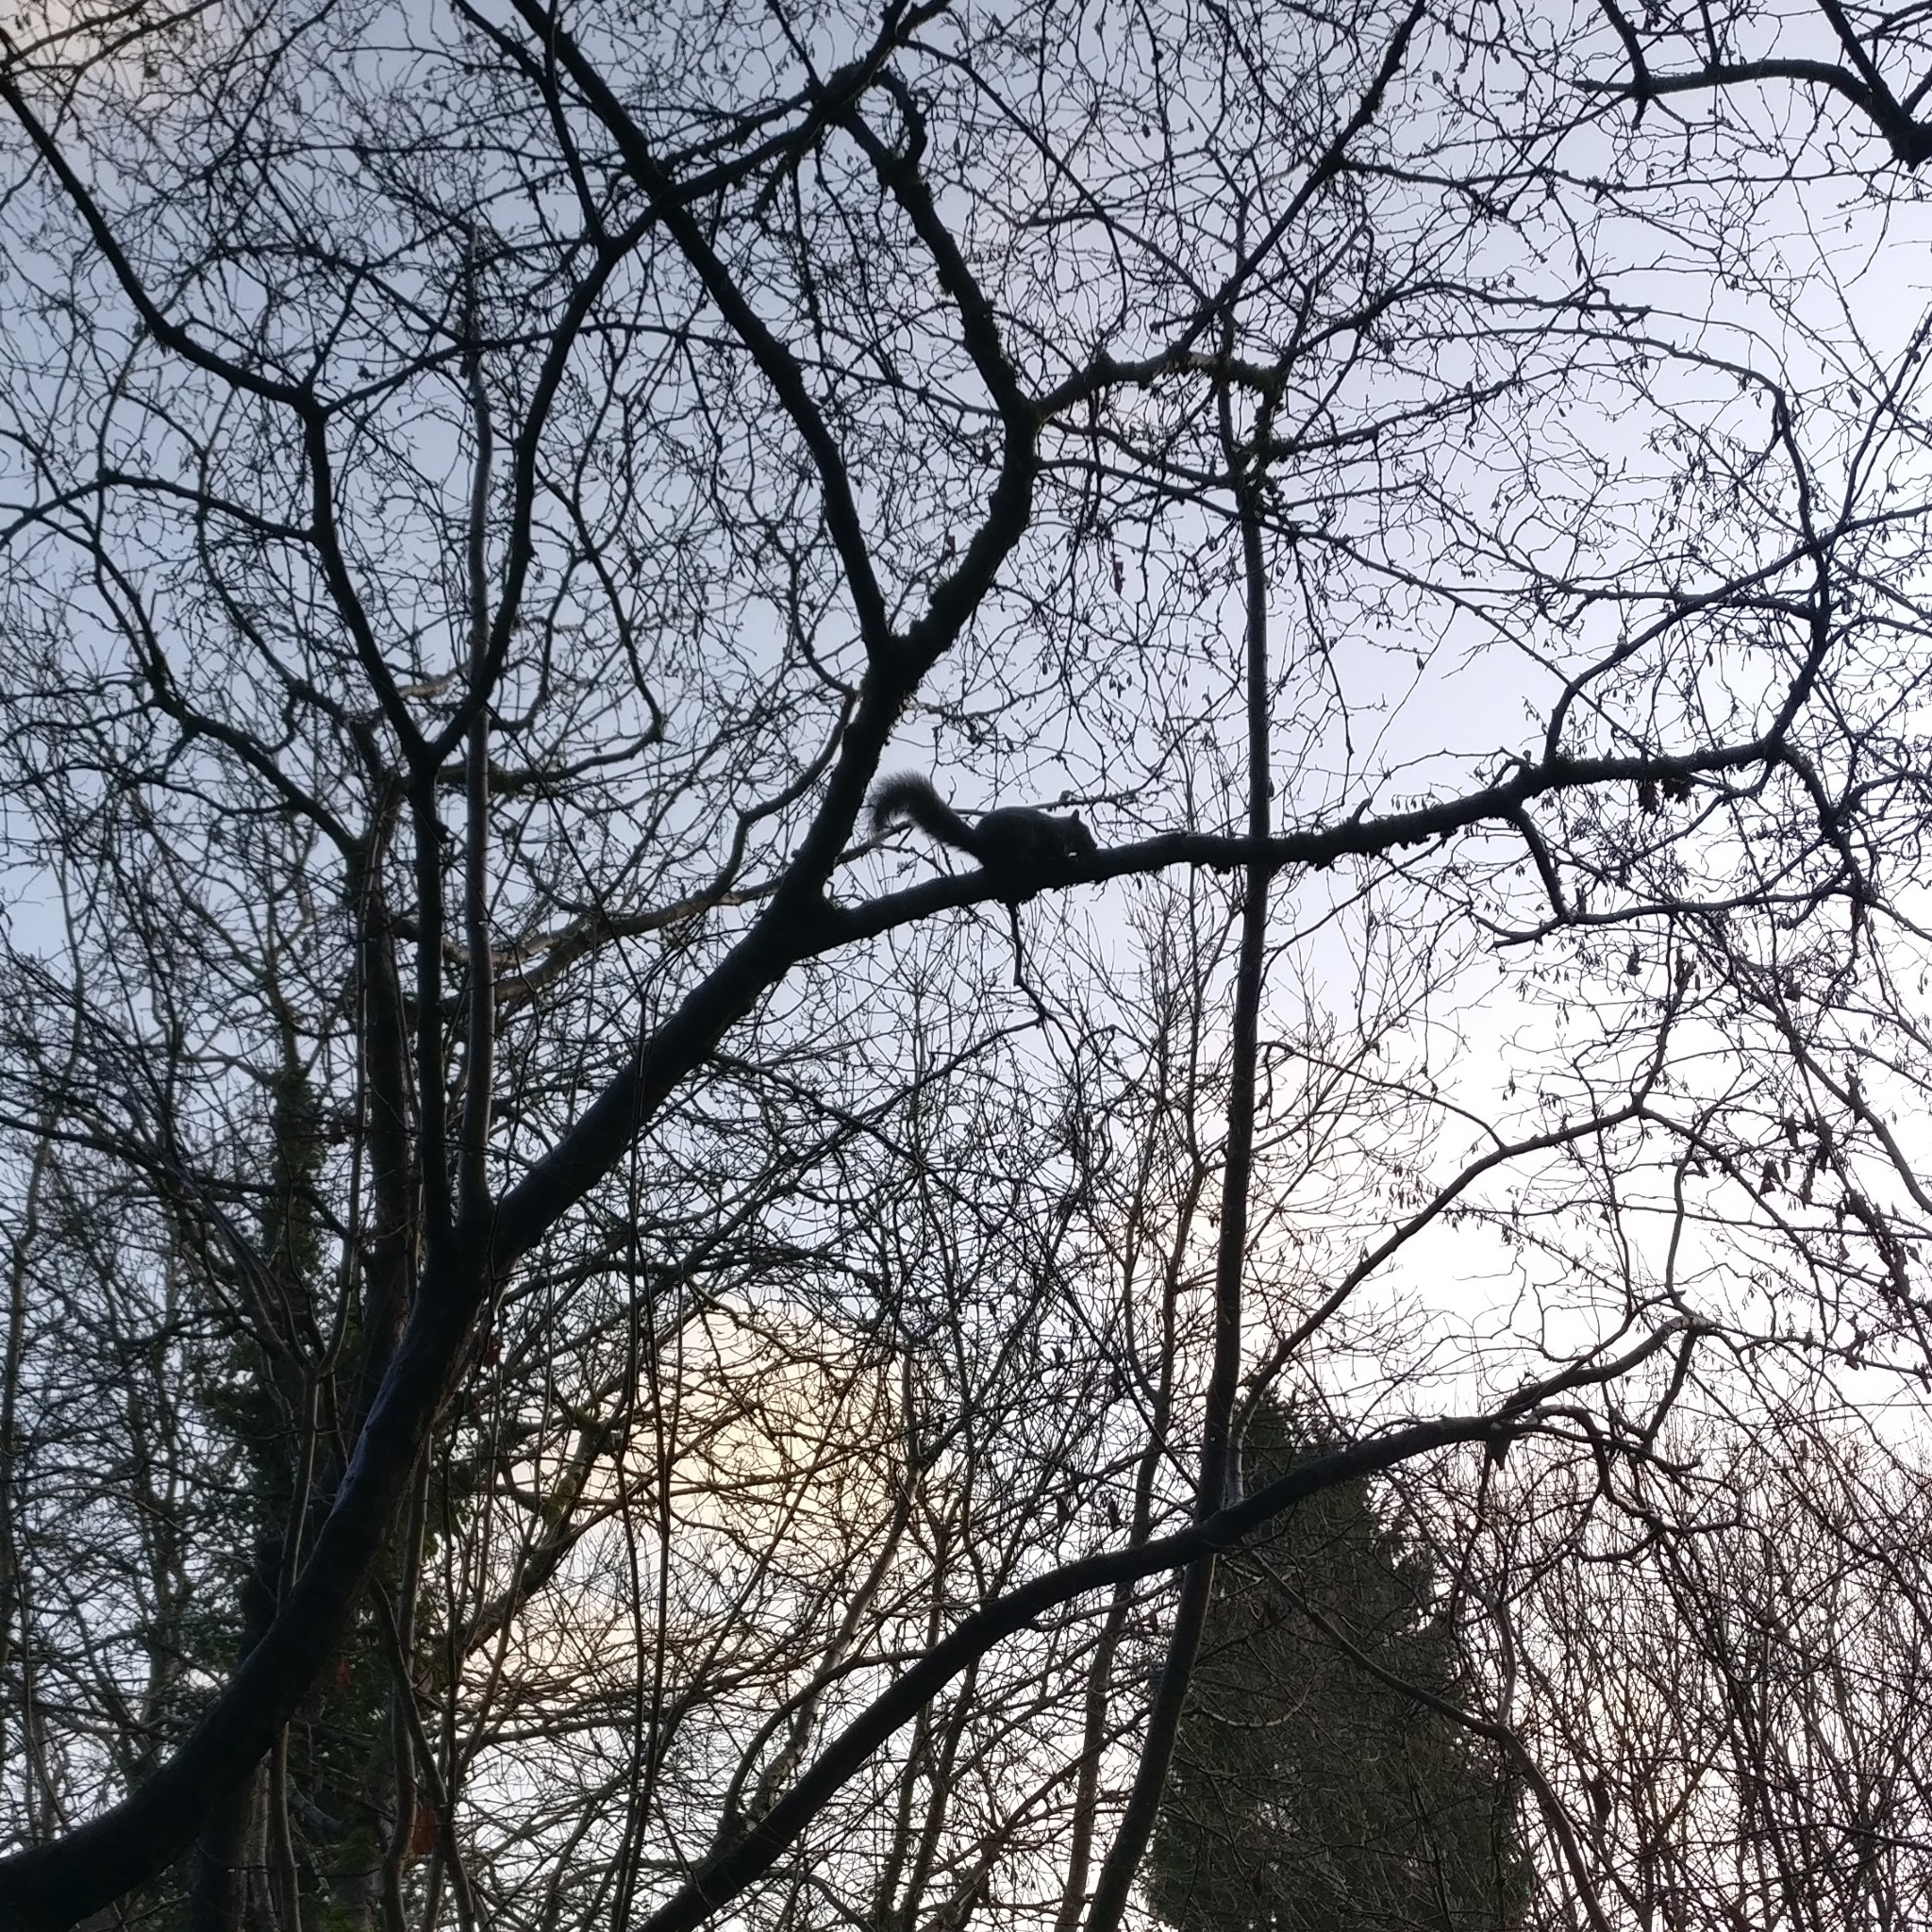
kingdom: Animalia
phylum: Chordata
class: Mammalia
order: Rodentia
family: Sciuridae
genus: Sciurus
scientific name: Sciurus carolinensis
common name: Eastern gray squirrel
